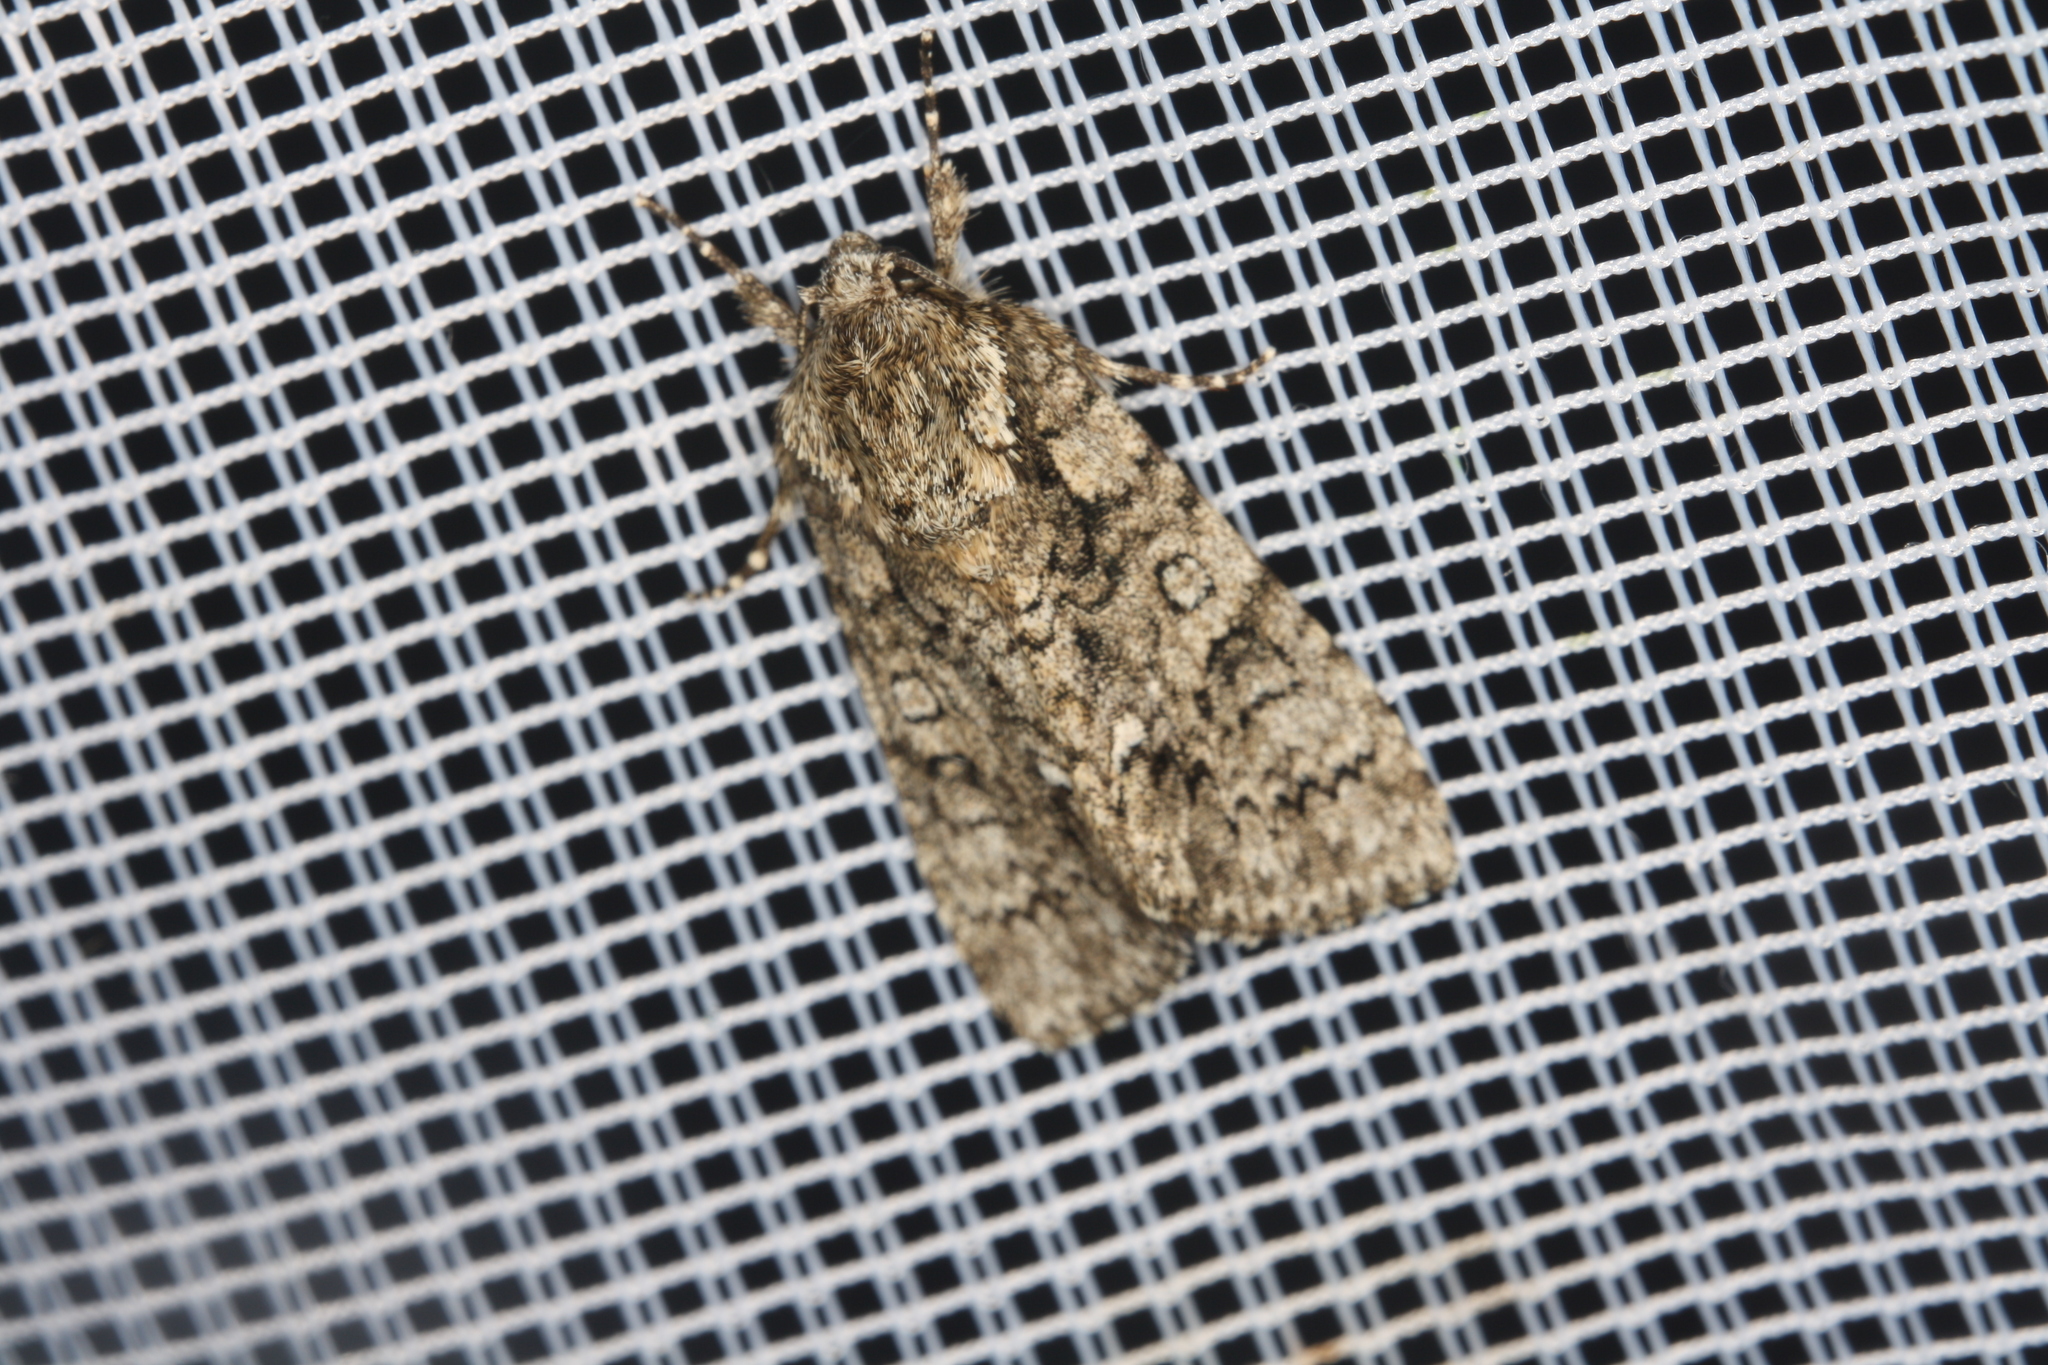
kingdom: Animalia
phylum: Arthropoda
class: Insecta
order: Lepidoptera
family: Noctuidae
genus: Acronicta
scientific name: Acronicta rumicis
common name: Knot grass
